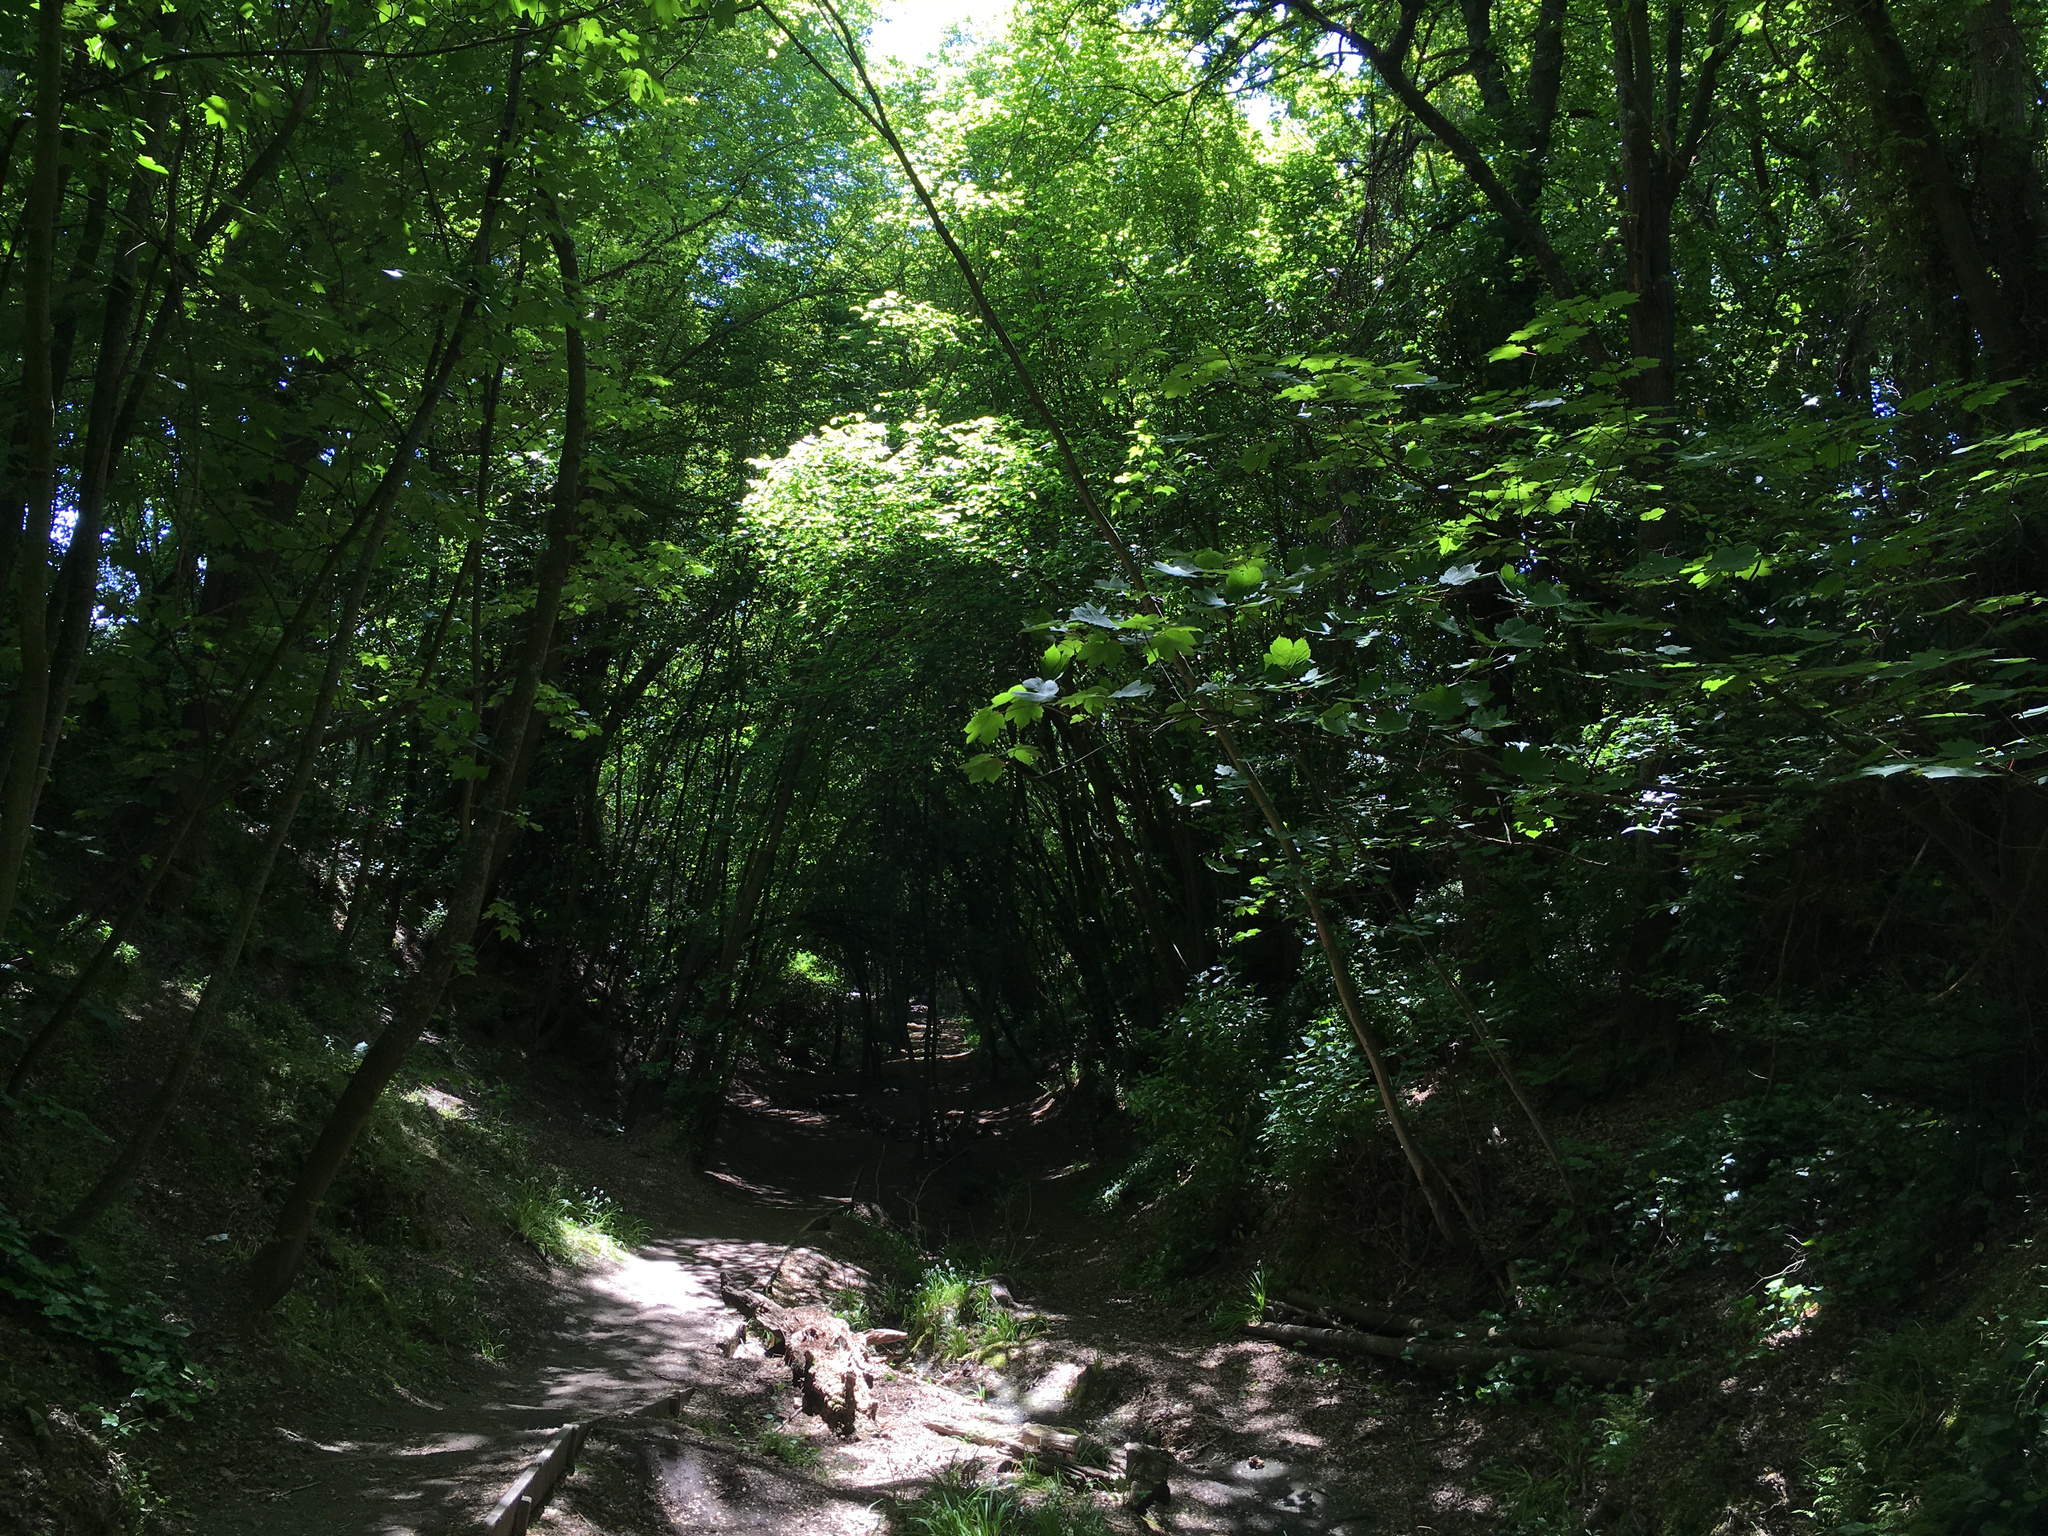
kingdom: Plantae
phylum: Tracheophyta
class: Magnoliopsida
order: Sapindales
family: Sapindaceae
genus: Acer
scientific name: Acer pseudoplatanus
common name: Sycamore
